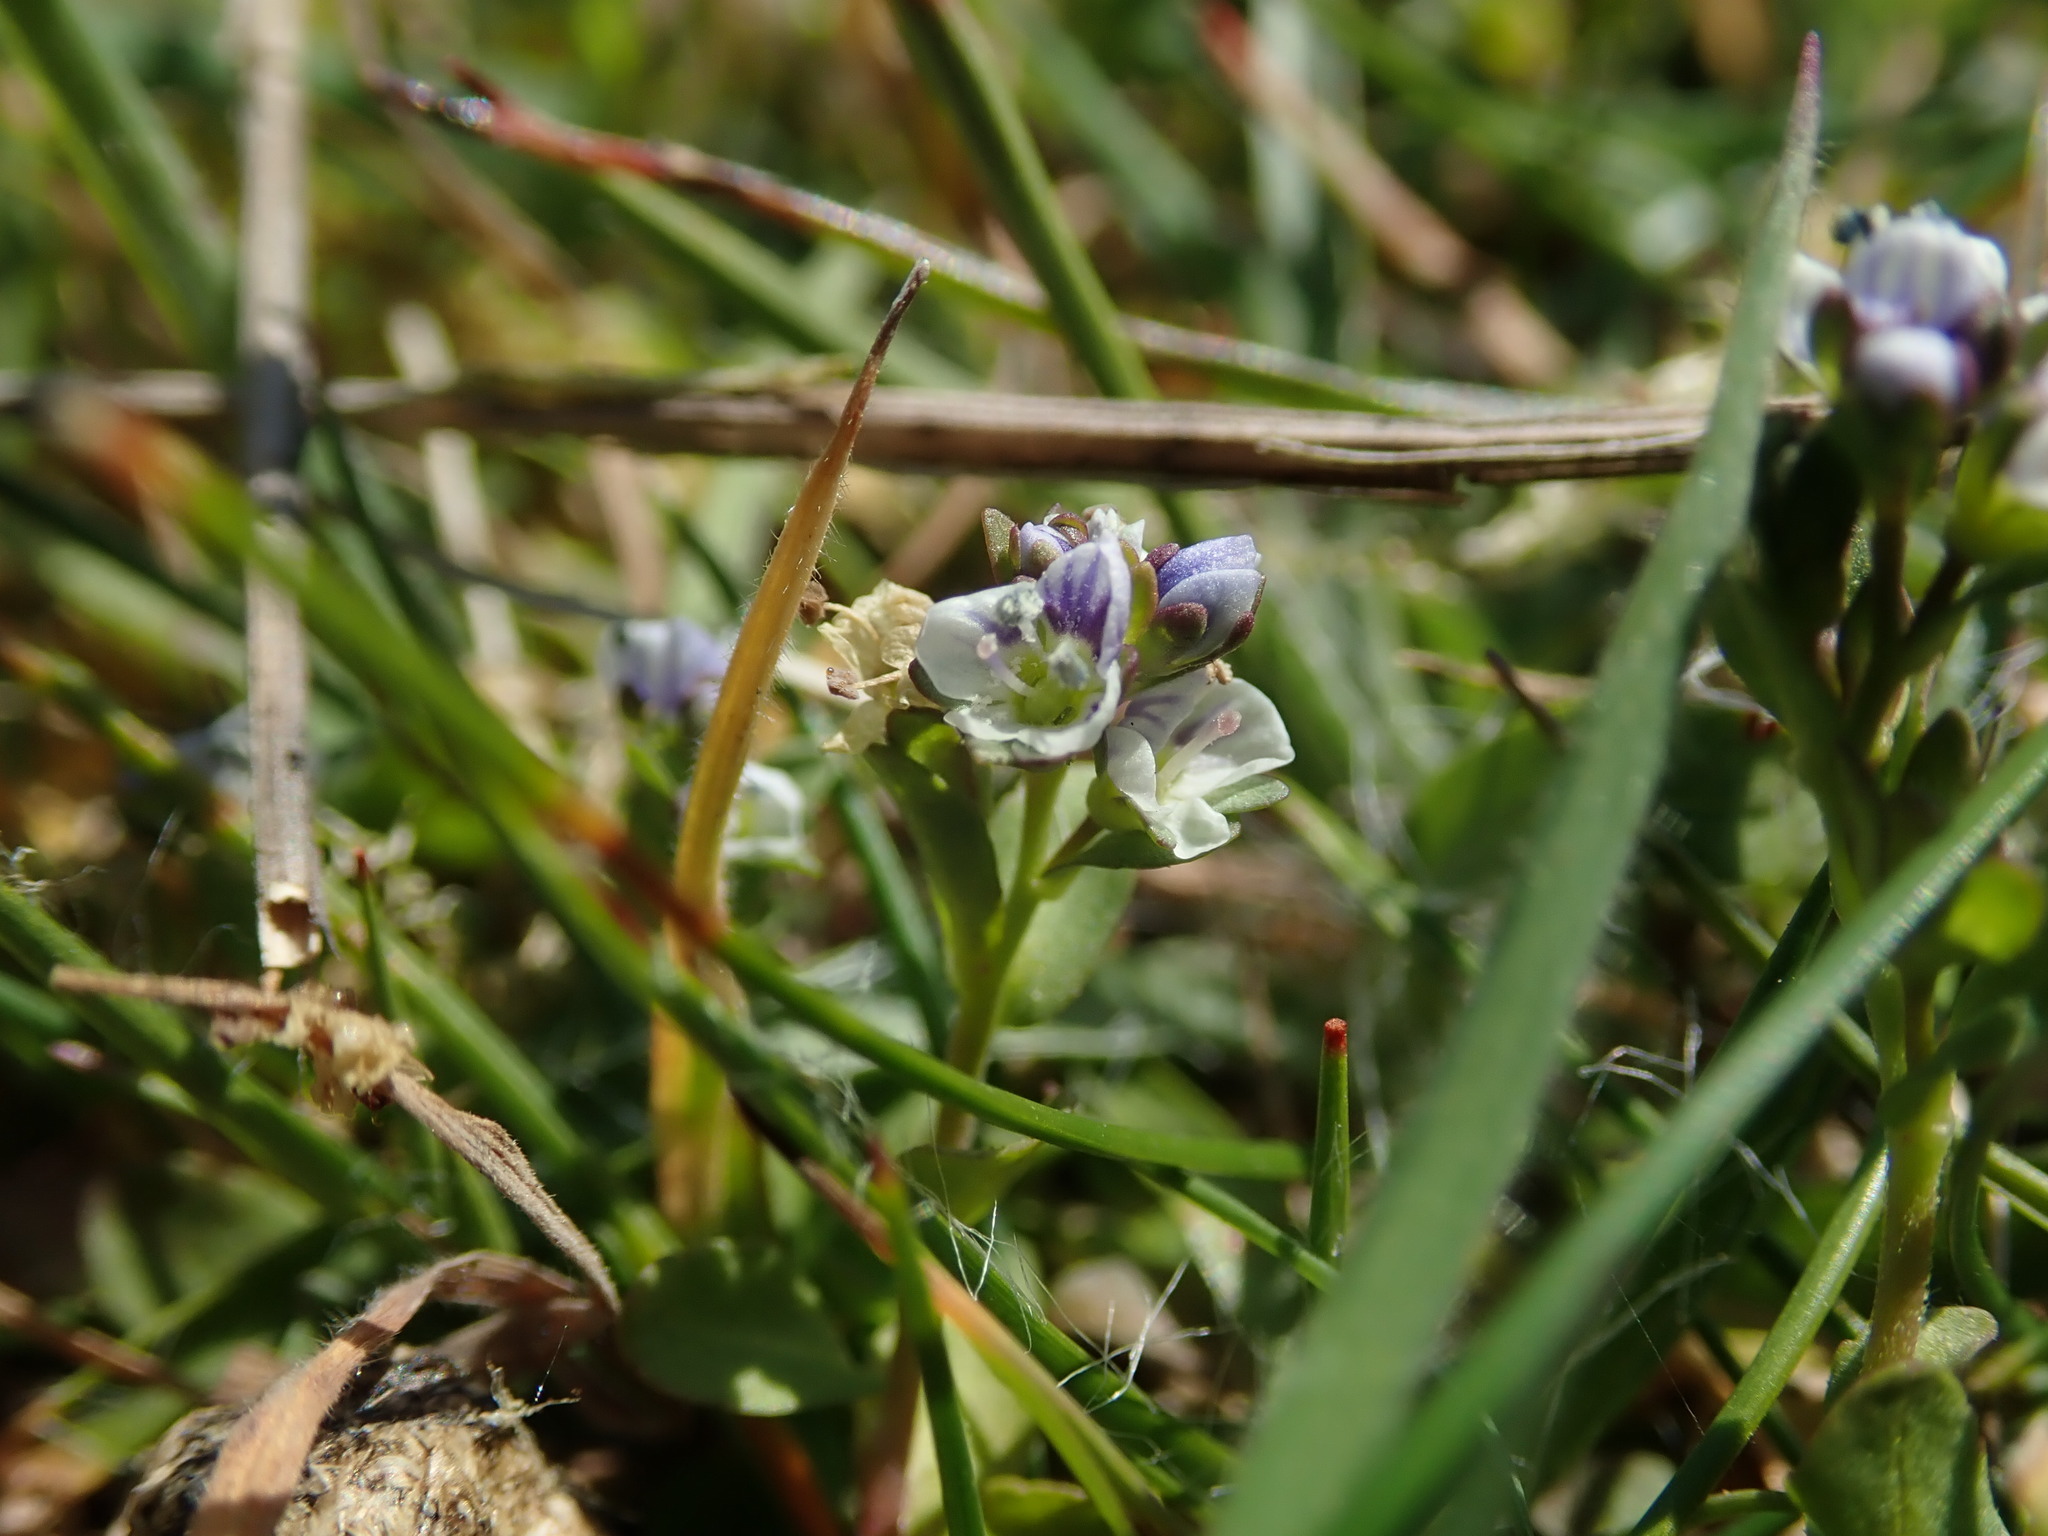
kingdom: Plantae
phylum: Tracheophyta
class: Magnoliopsida
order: Lamiales
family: Plantaginaceae
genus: Veronica
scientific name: Veronica serpyllifolia
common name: Thyme-leaved speedwell
